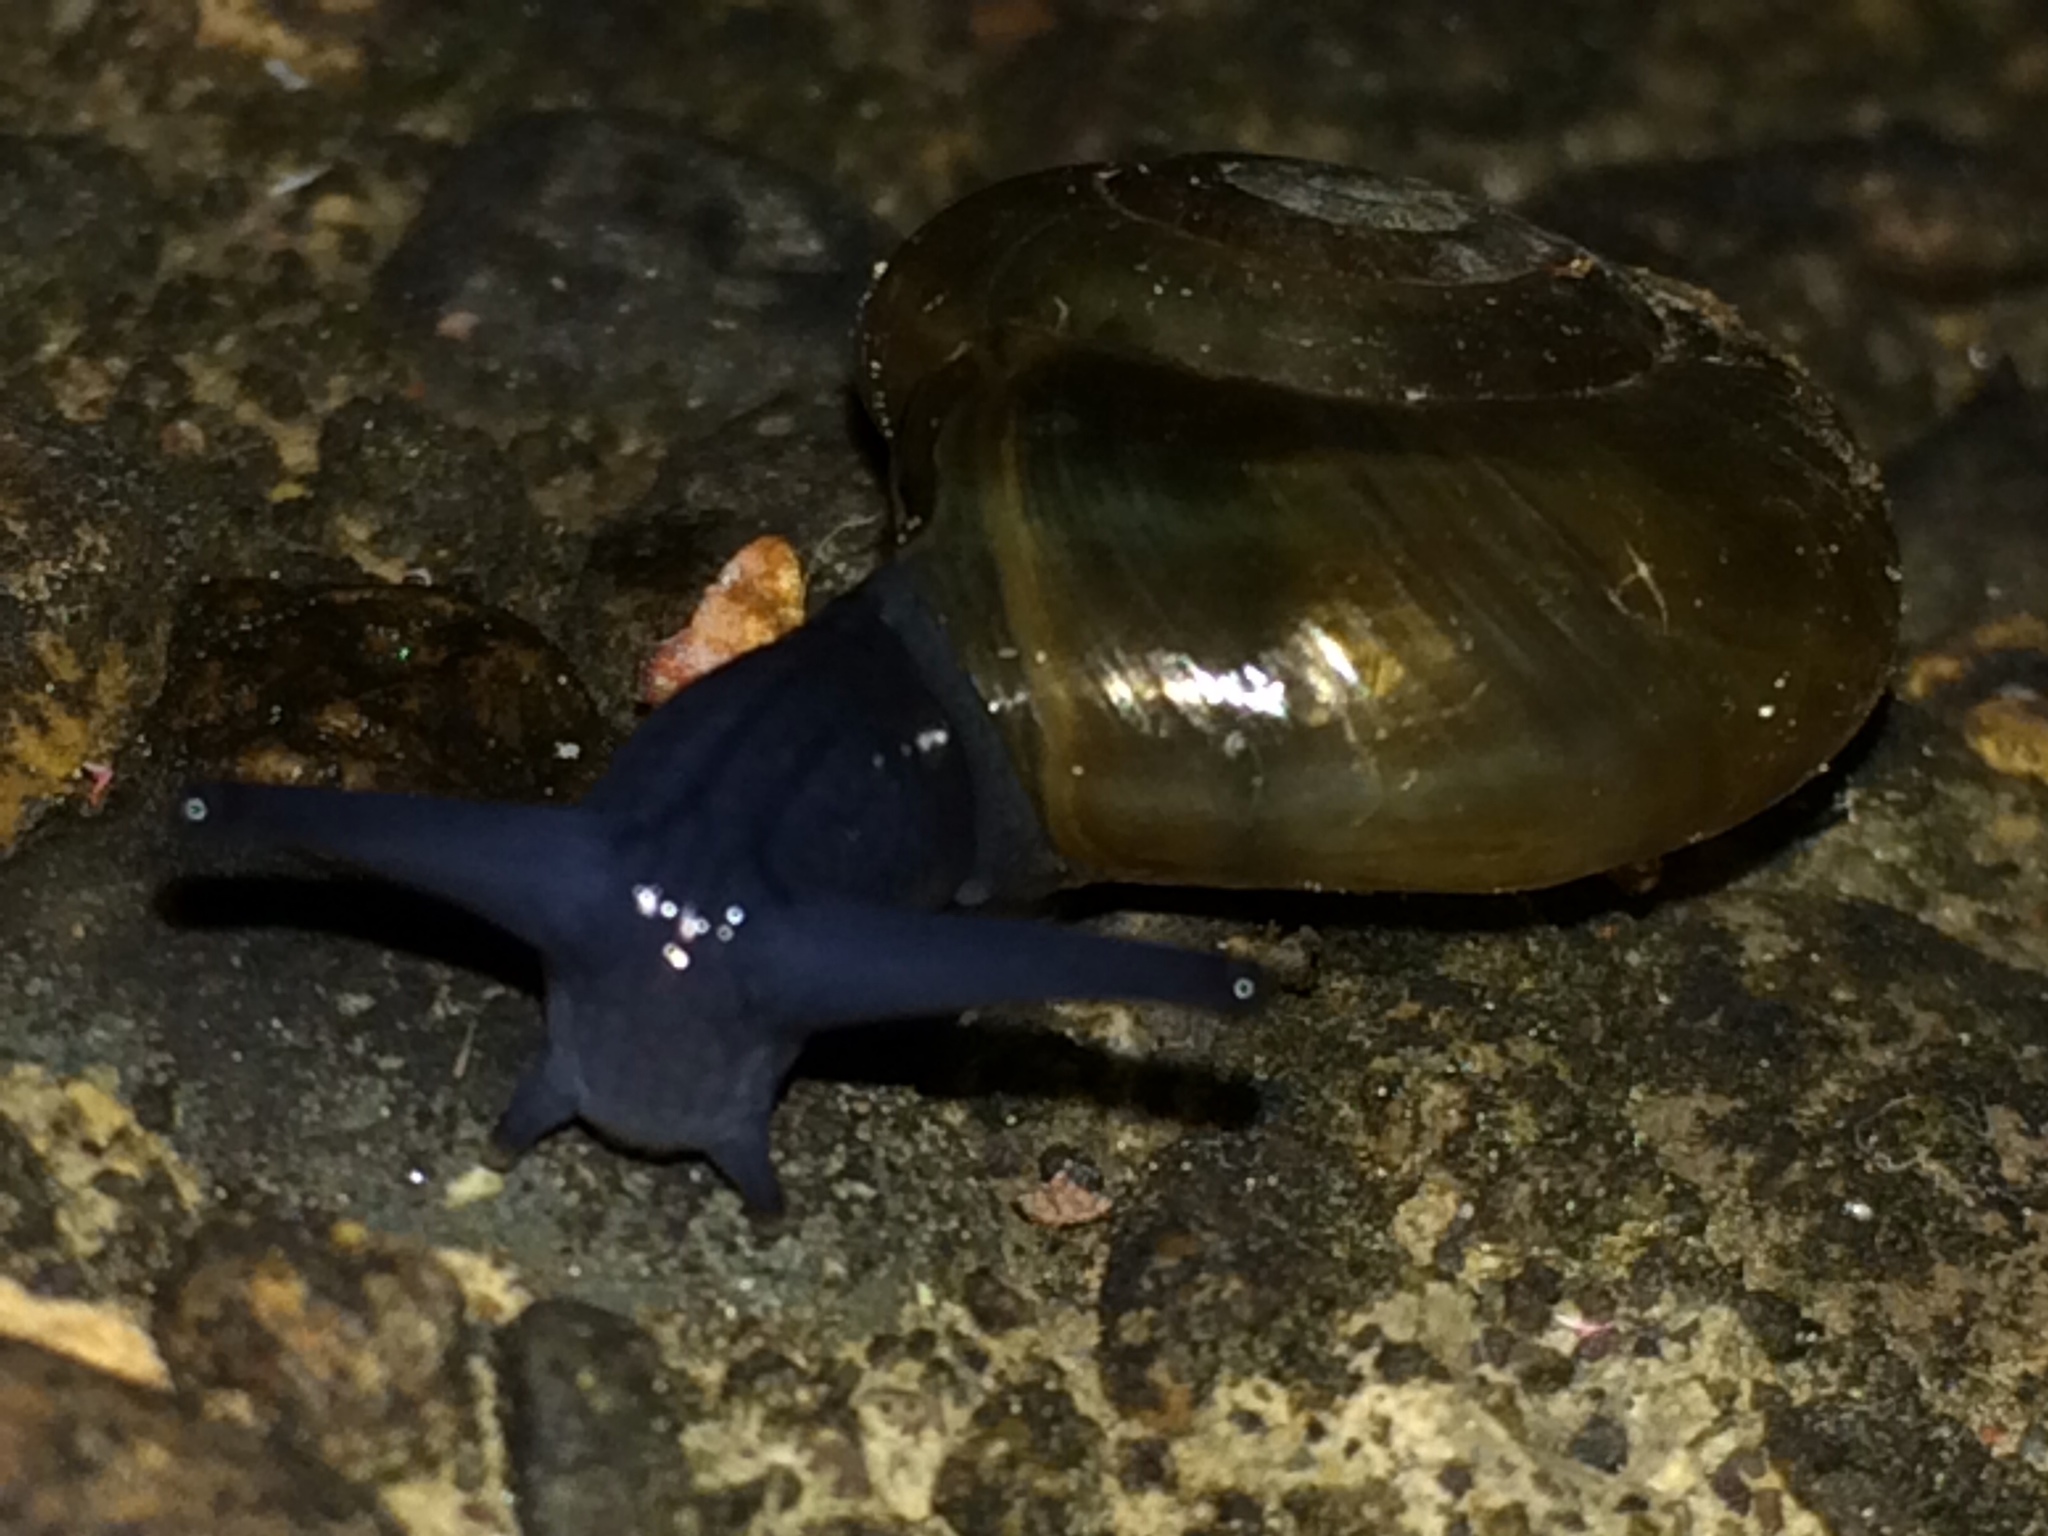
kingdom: Animalia
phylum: Mollusca
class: Gastropoda
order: Stylommatophora
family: Oxychilidae
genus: Oxychilus
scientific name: Oxychilus draparnaudi
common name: Draparnaud's glass snail
